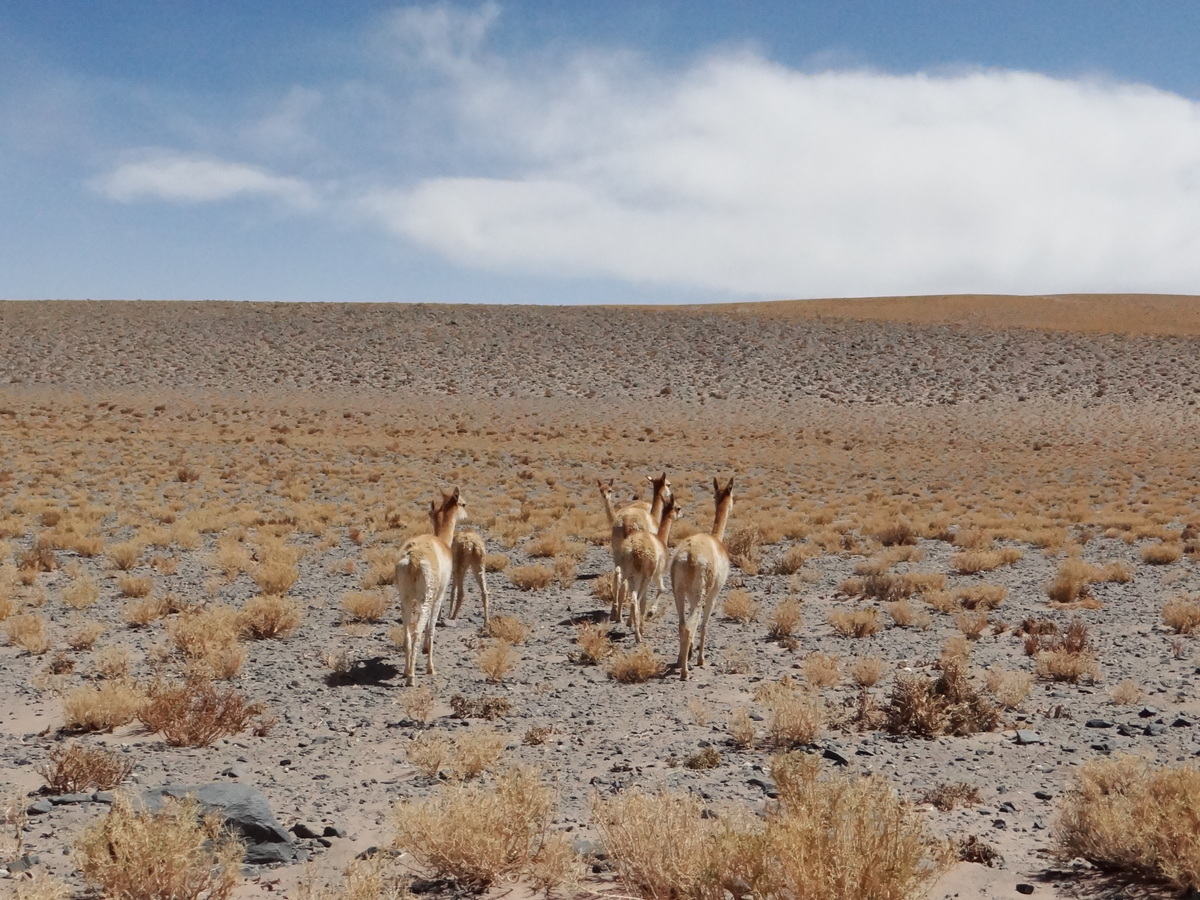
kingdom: Animalia
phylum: Chordata
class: Mammalia
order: Artiodactyla
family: Camelidae
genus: Vicugna
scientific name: Vicugna vicugna
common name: Vicugna
